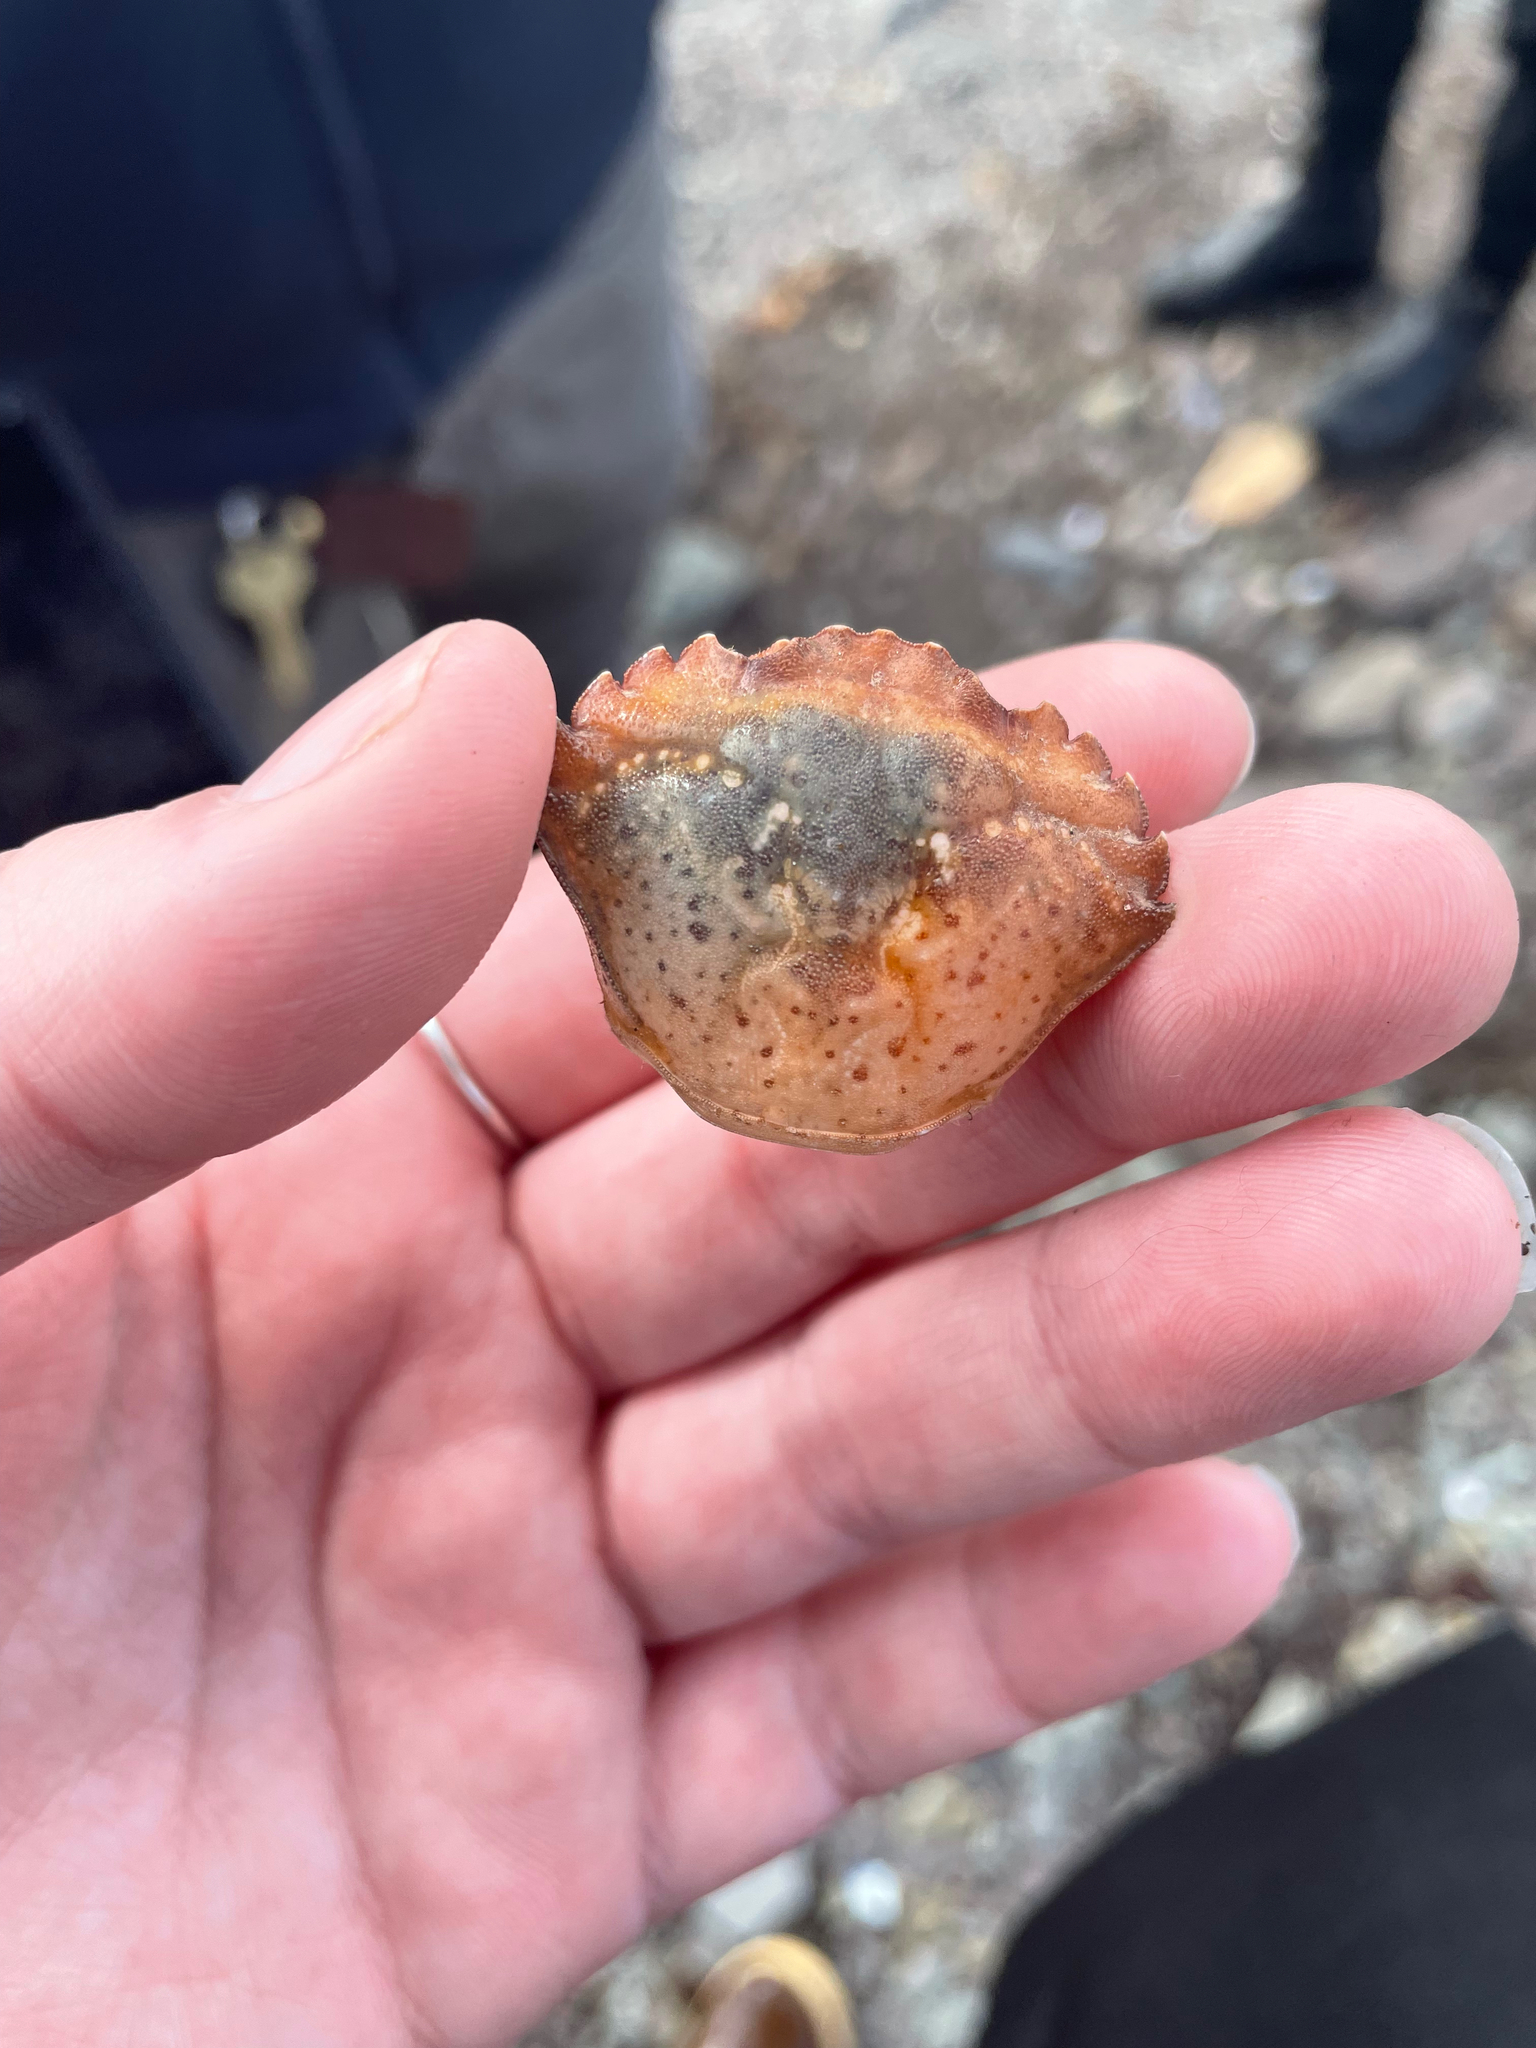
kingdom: Animalia
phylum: Arthropoda
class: Malacostraca
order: Decapoda
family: Carcinidae
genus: Carcinus
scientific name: Carcinus maenas
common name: European green crab
